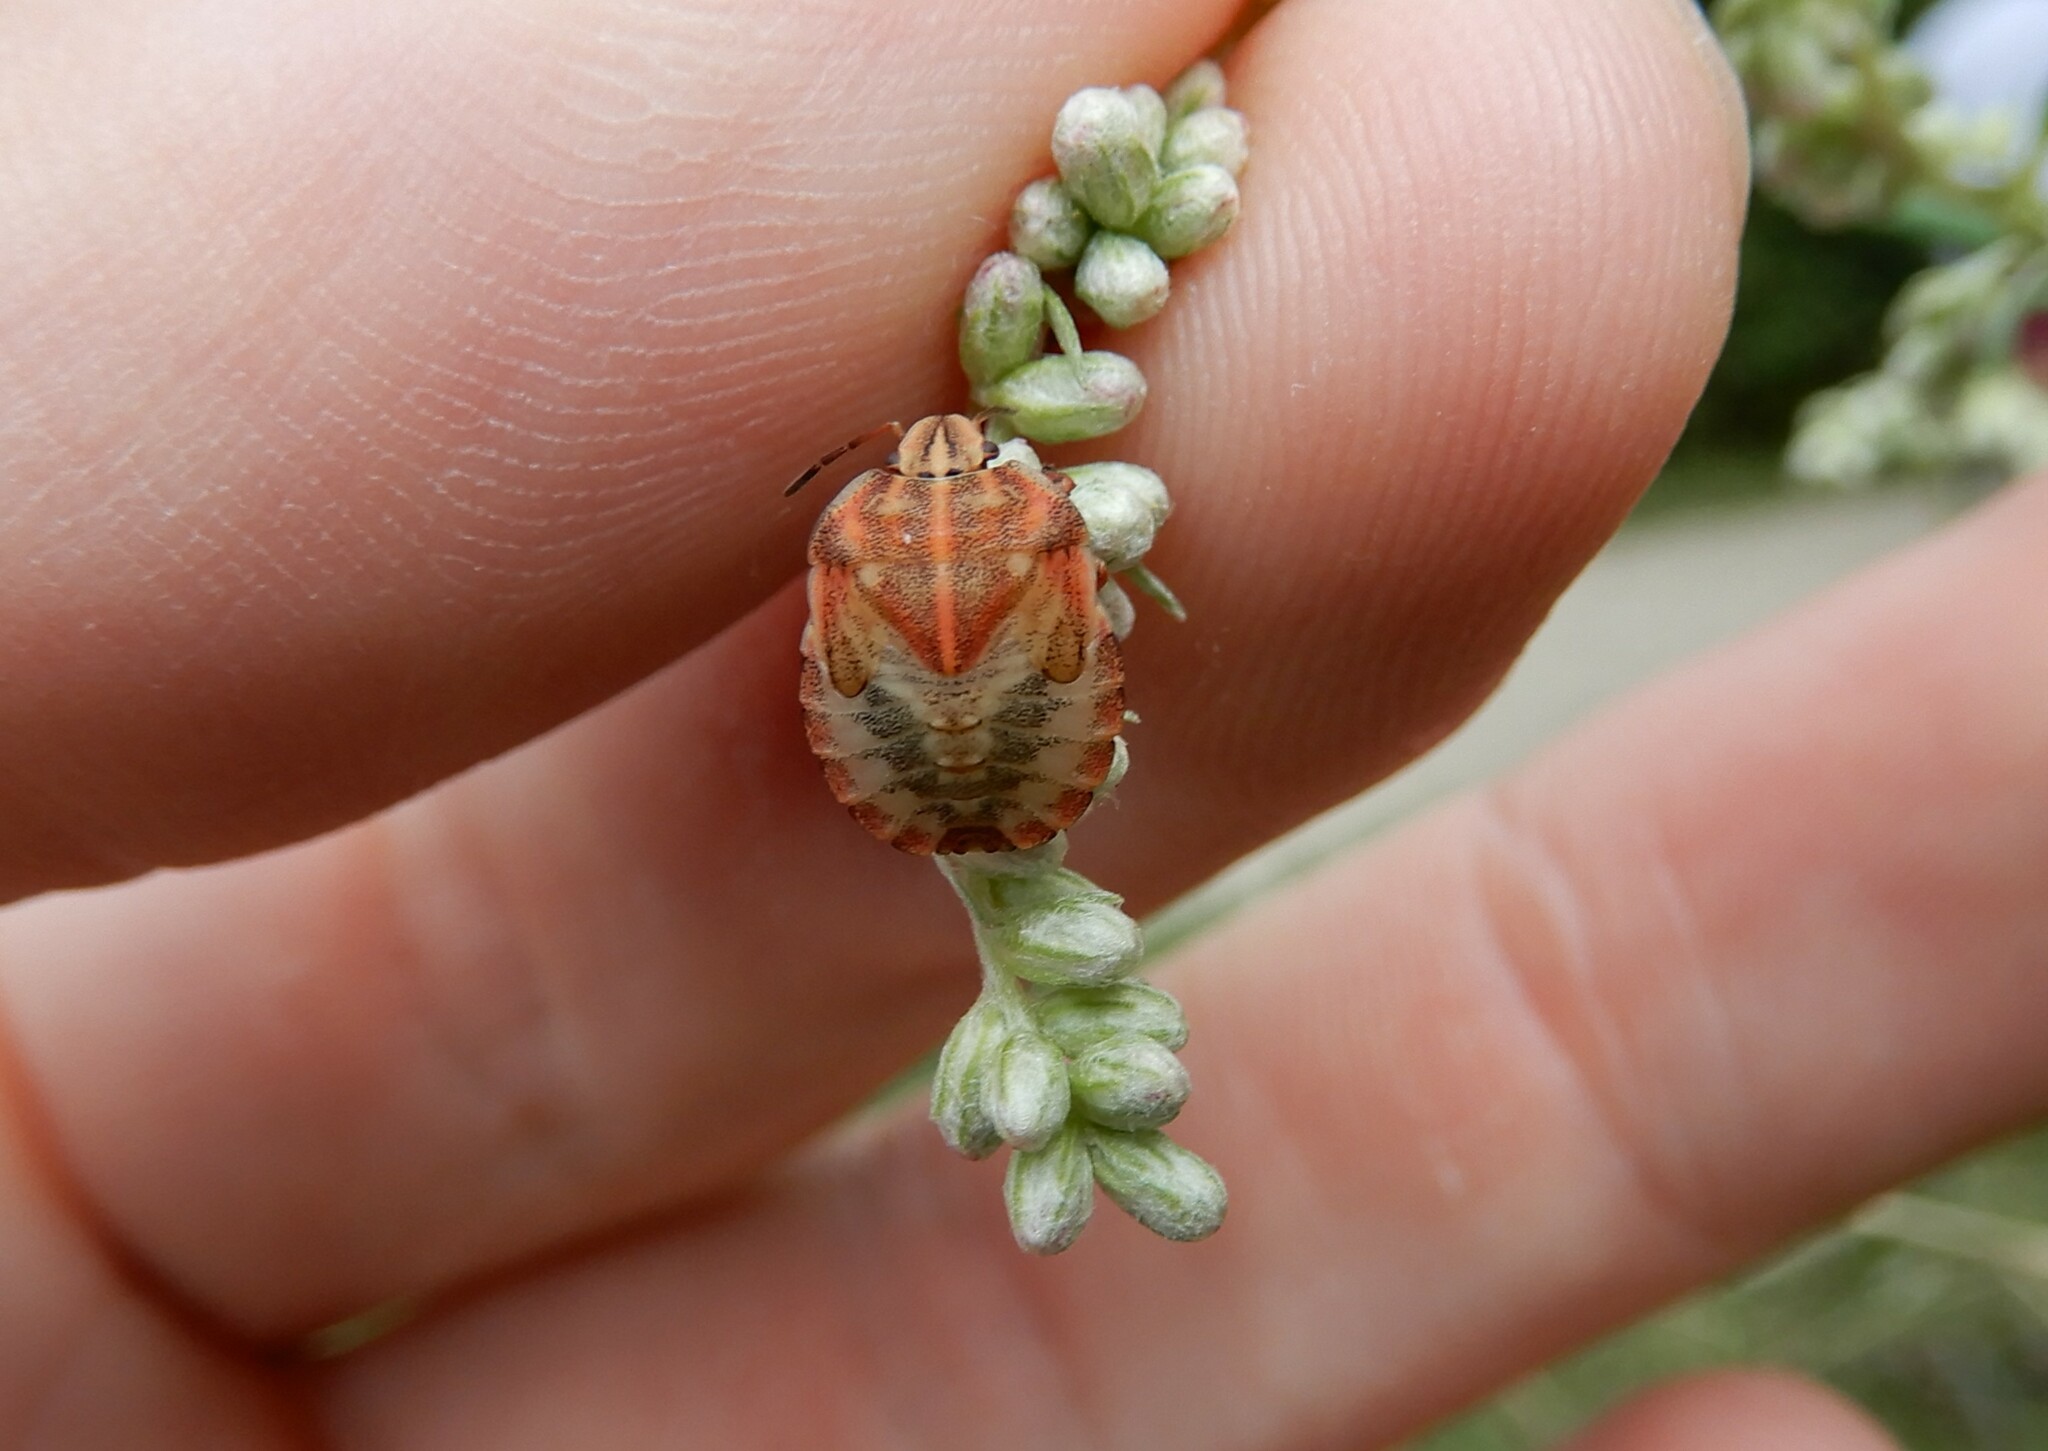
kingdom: Animalia
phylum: Arthropoda
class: Insecta
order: Hemiptera
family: Pentatomidae
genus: Graphosoma
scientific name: Graphosoma italicum
